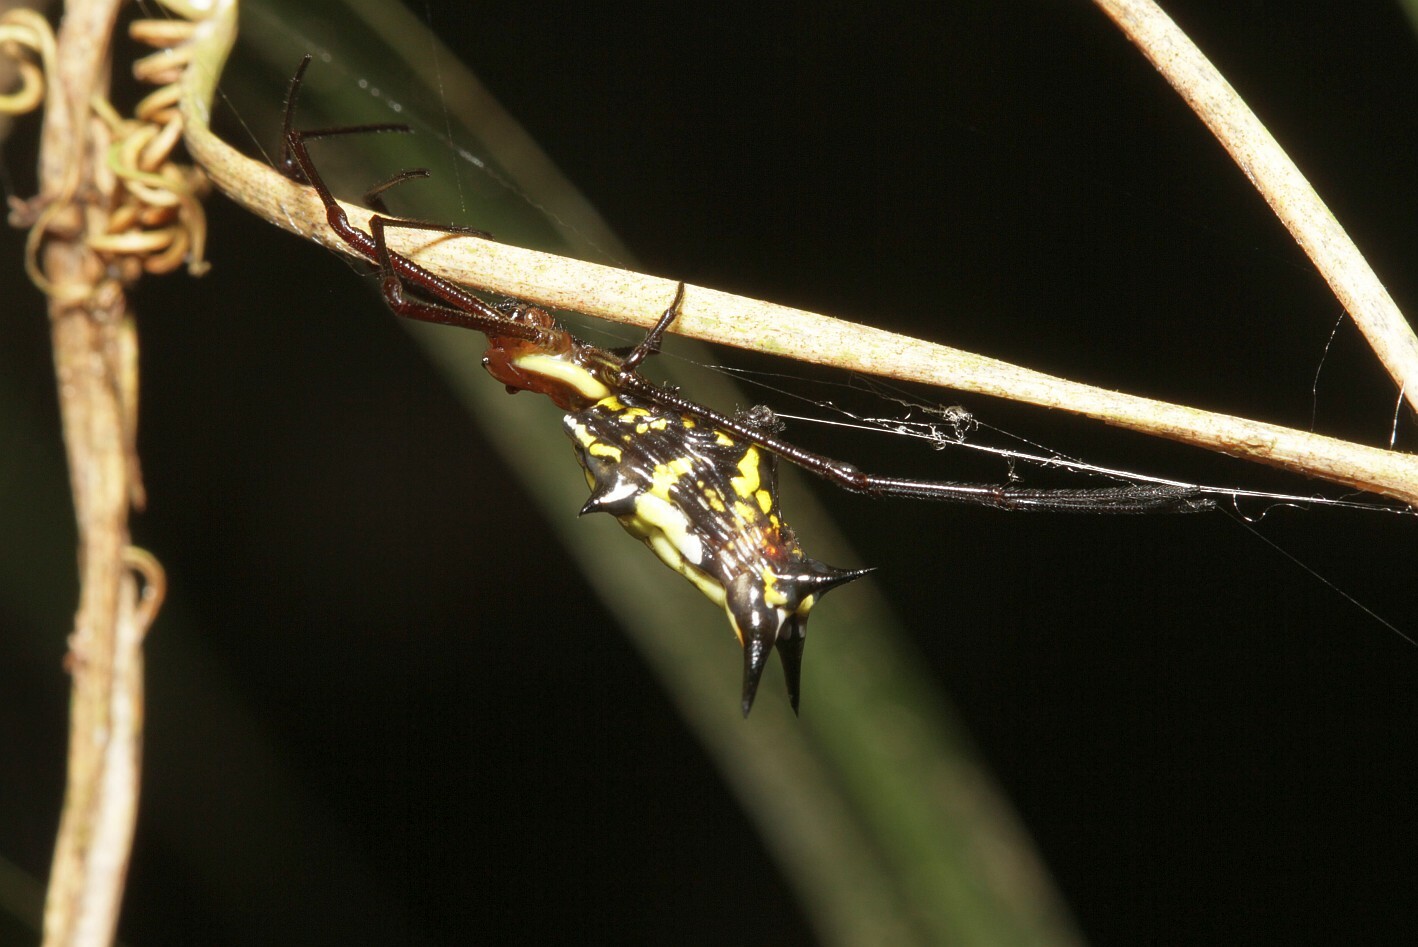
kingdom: Animalia
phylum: Arthropoda
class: Arachnida
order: Araneae
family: Araneidae
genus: Micrathena
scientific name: Micrathena miles
